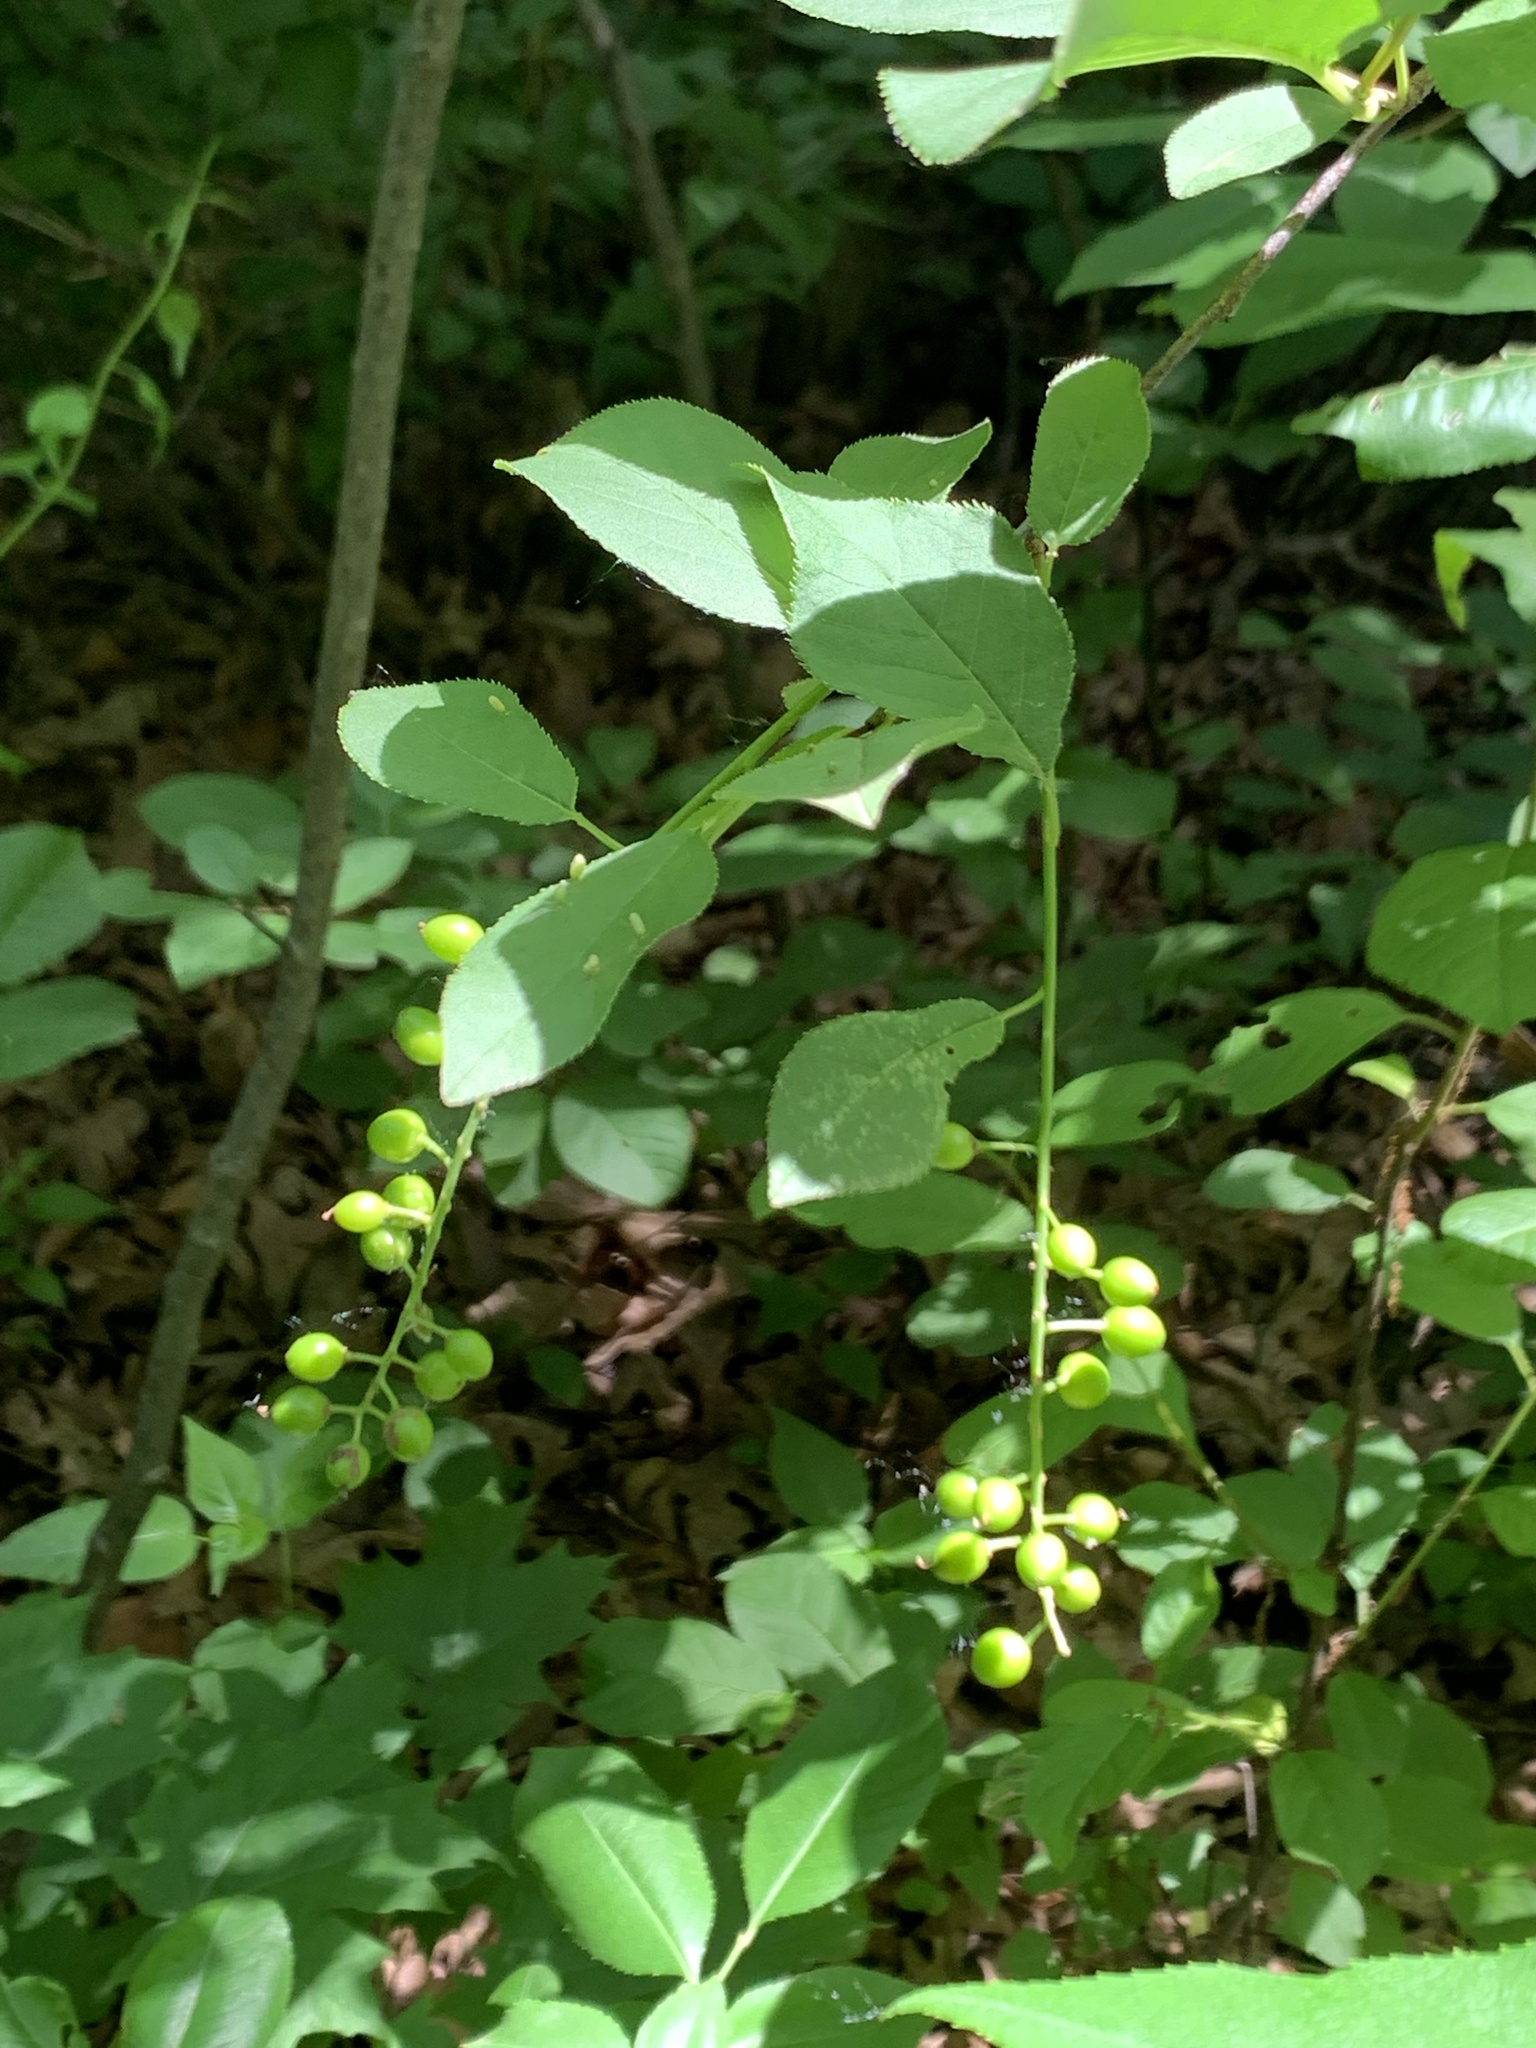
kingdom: Plantae
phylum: Tracheophyta
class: Magnoliopsida
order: Rosales
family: Rosaceae
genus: Prunus
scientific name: Prunus virginiana
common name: Chokecherry
